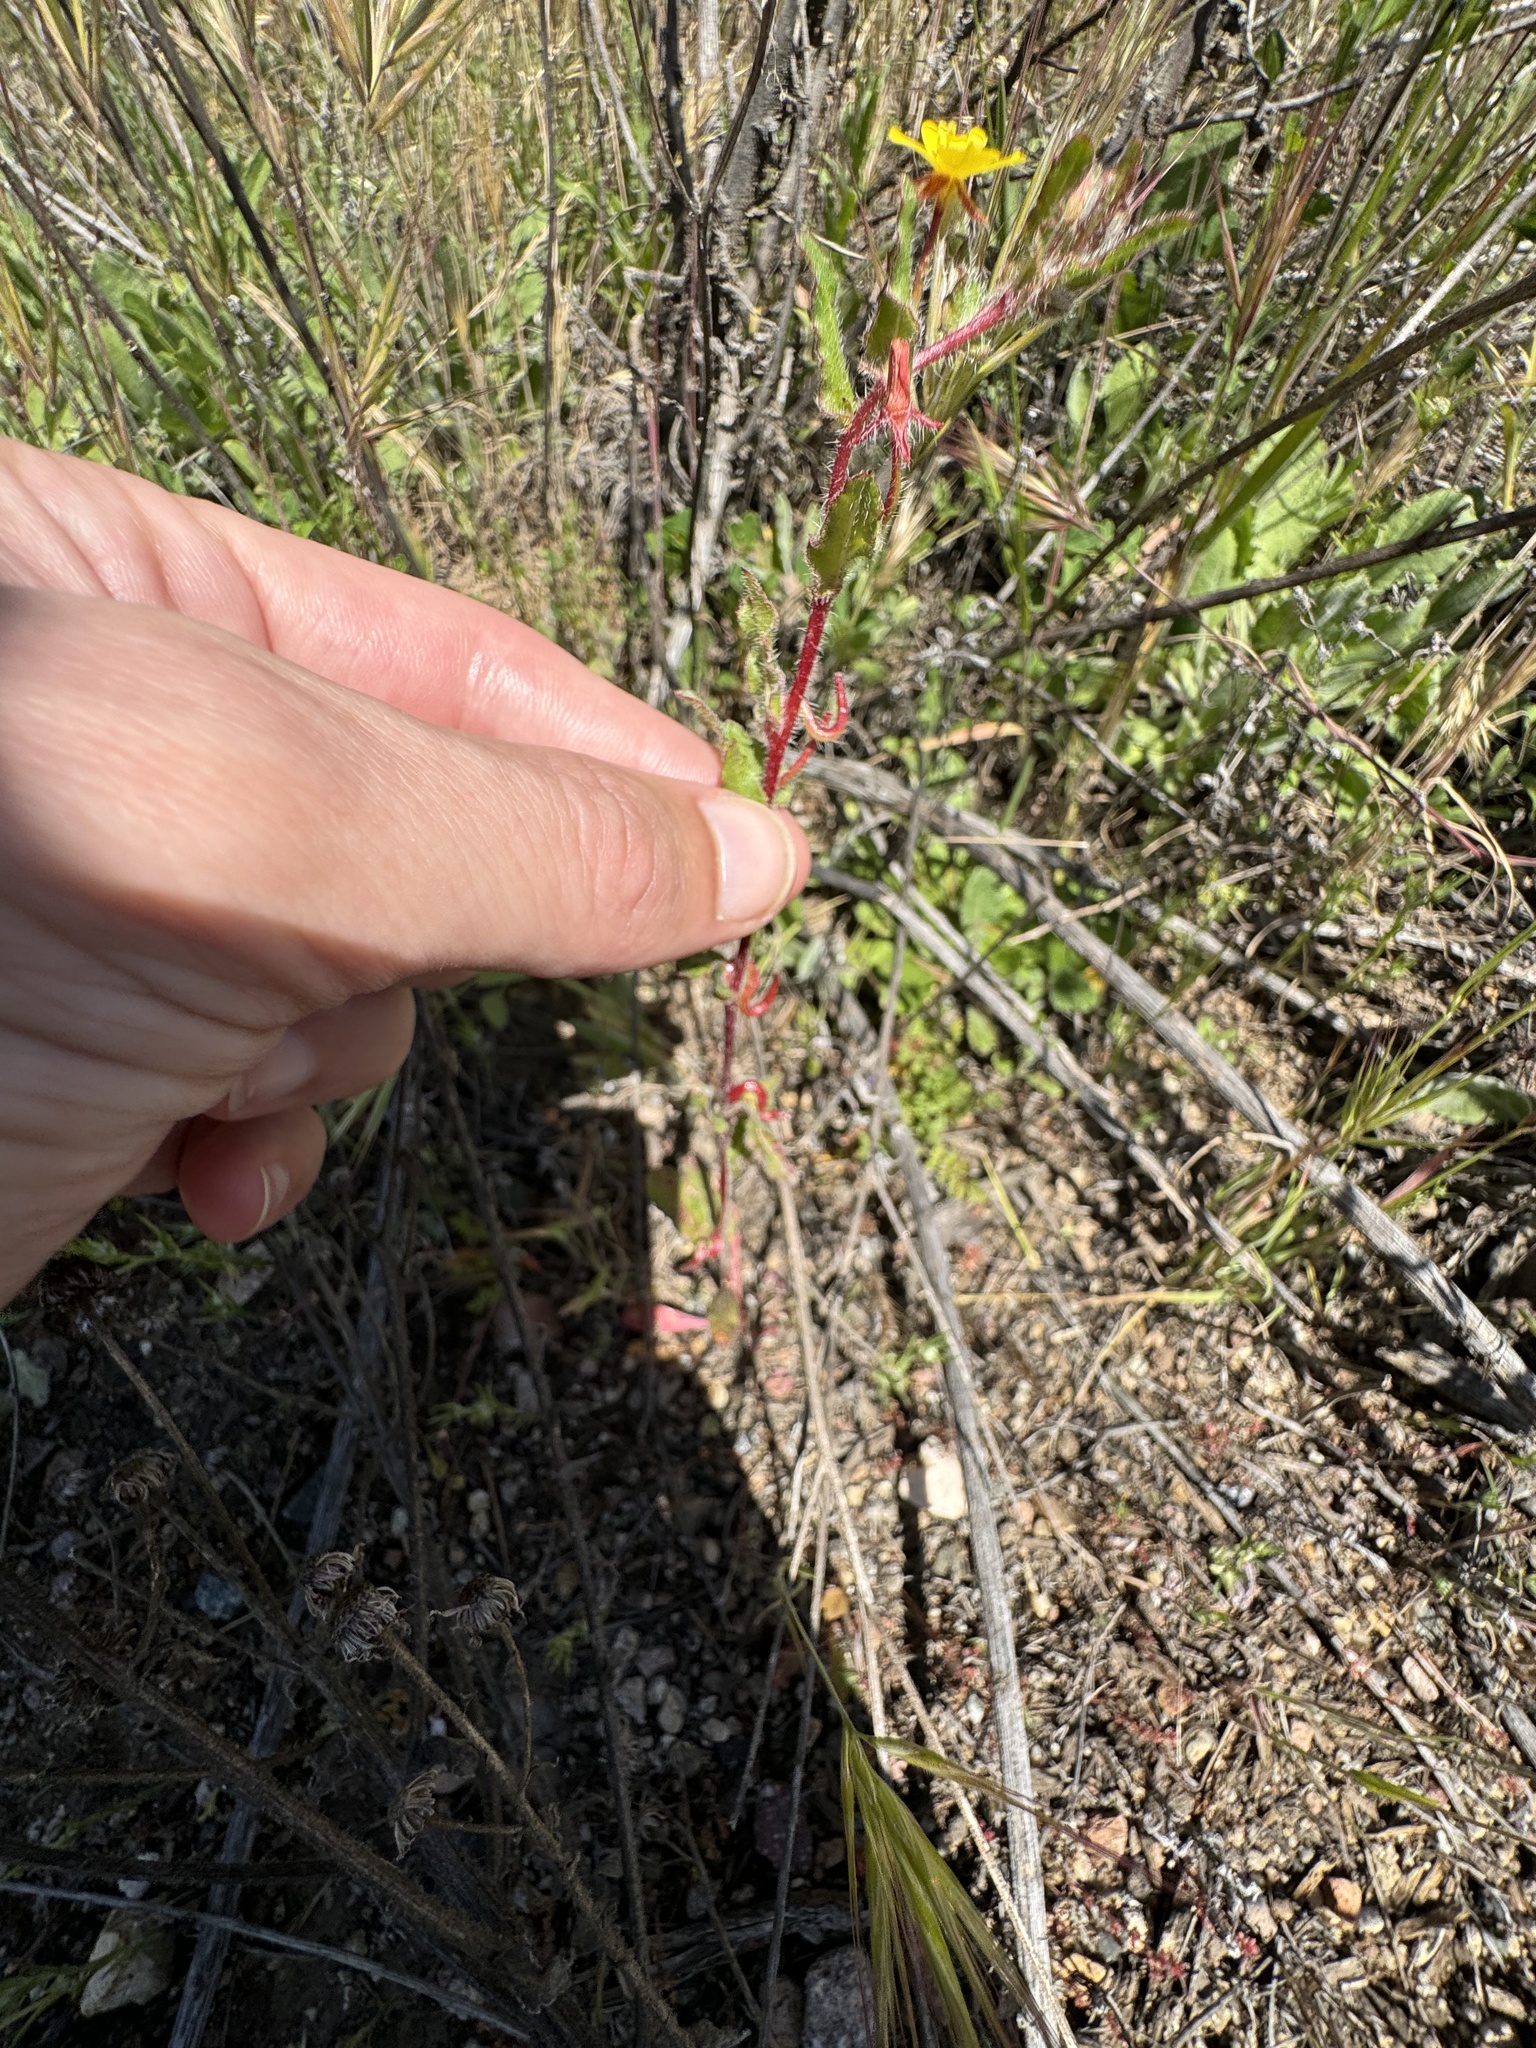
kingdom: Plantae
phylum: Tracheophyta
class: Magnoliopsida
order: Myrtales
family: Onagraceae
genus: Camissoniopsis
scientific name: Camissoniopsis lewisii
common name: Lewis' evening primrose
